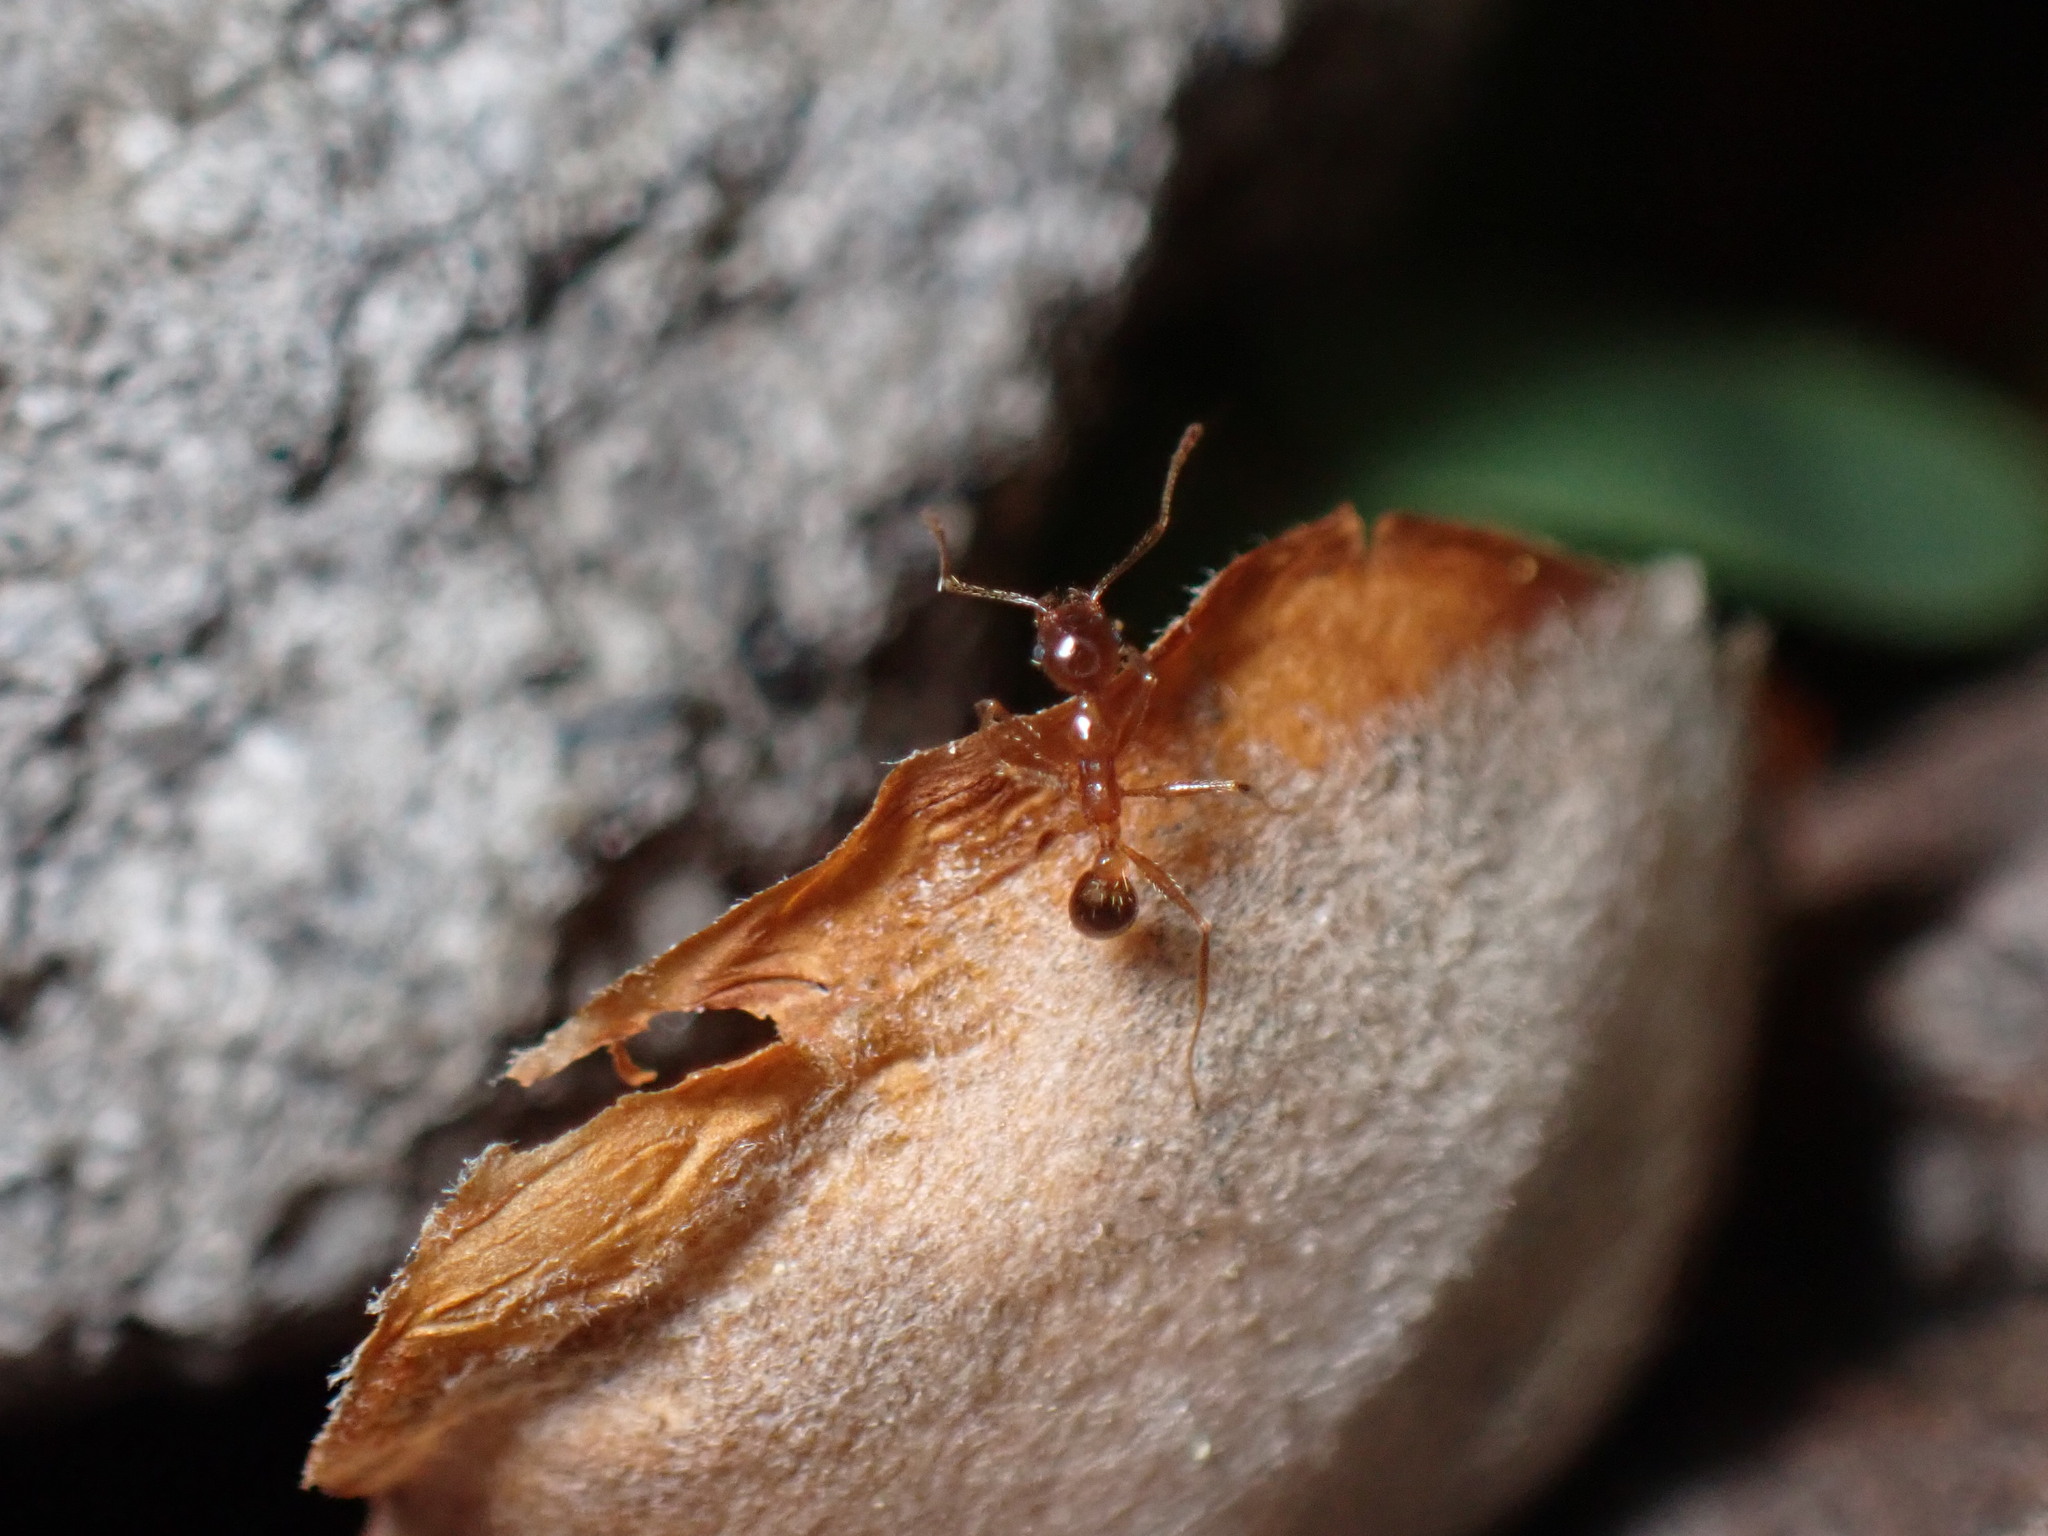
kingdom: Animalia
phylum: Arthropoda
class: Insecta
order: Hymenoptera
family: Formicidae
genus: Pheidole
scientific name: Pheidole noda
